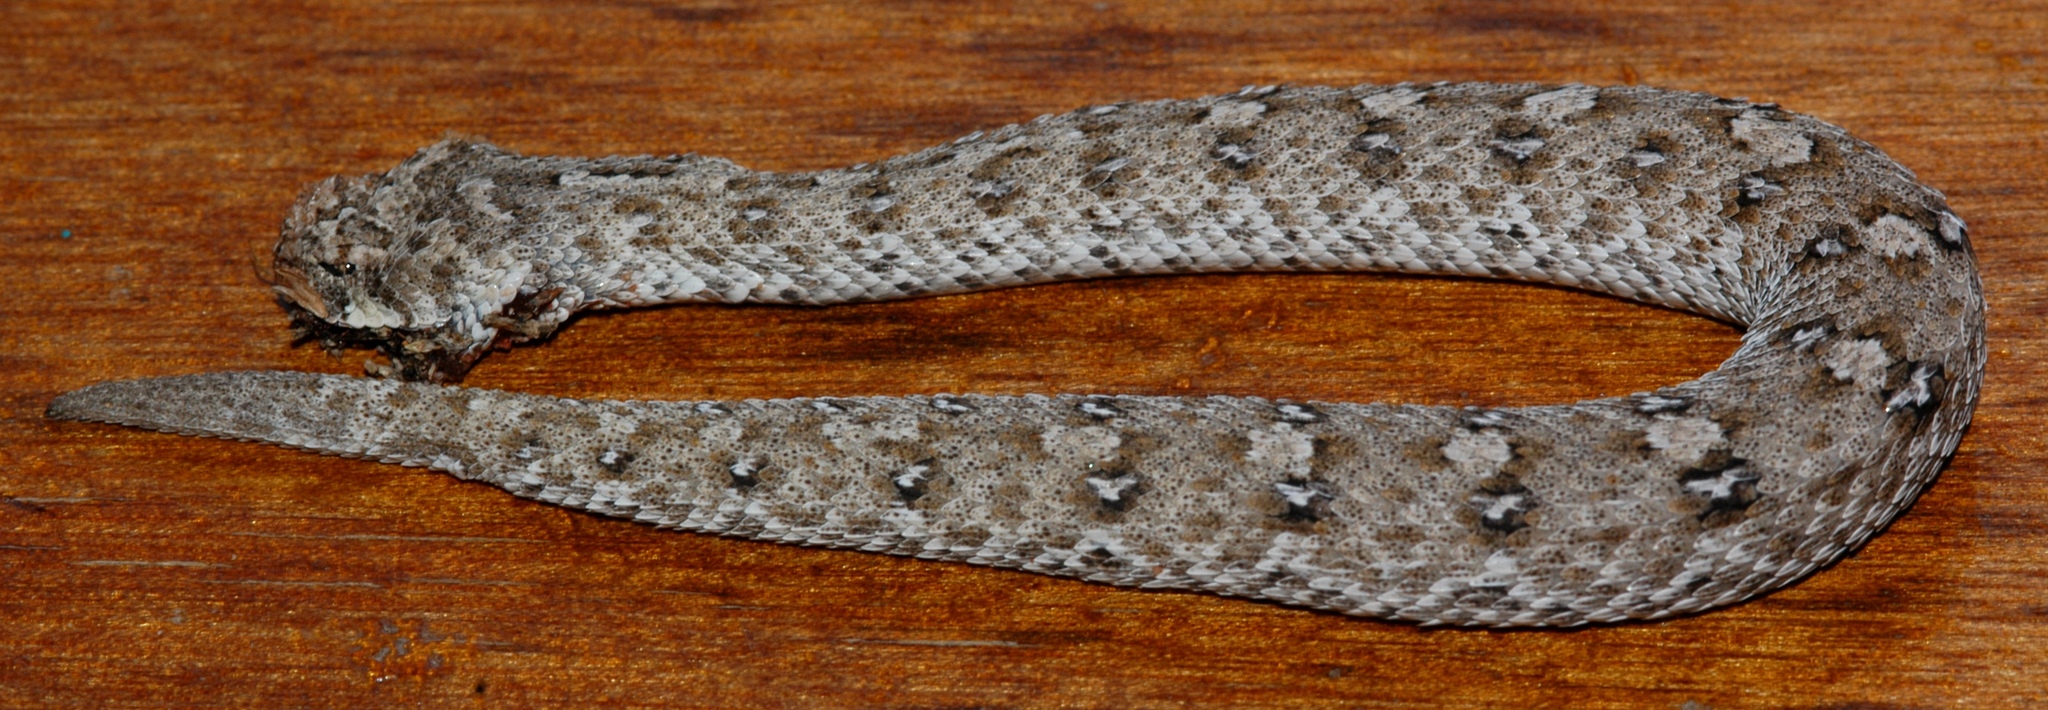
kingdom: Animalia
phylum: Chordata
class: Squamata
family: Viperidae
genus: Bitis
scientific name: Bitis schneideri
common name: Namaqua dwarf adder
